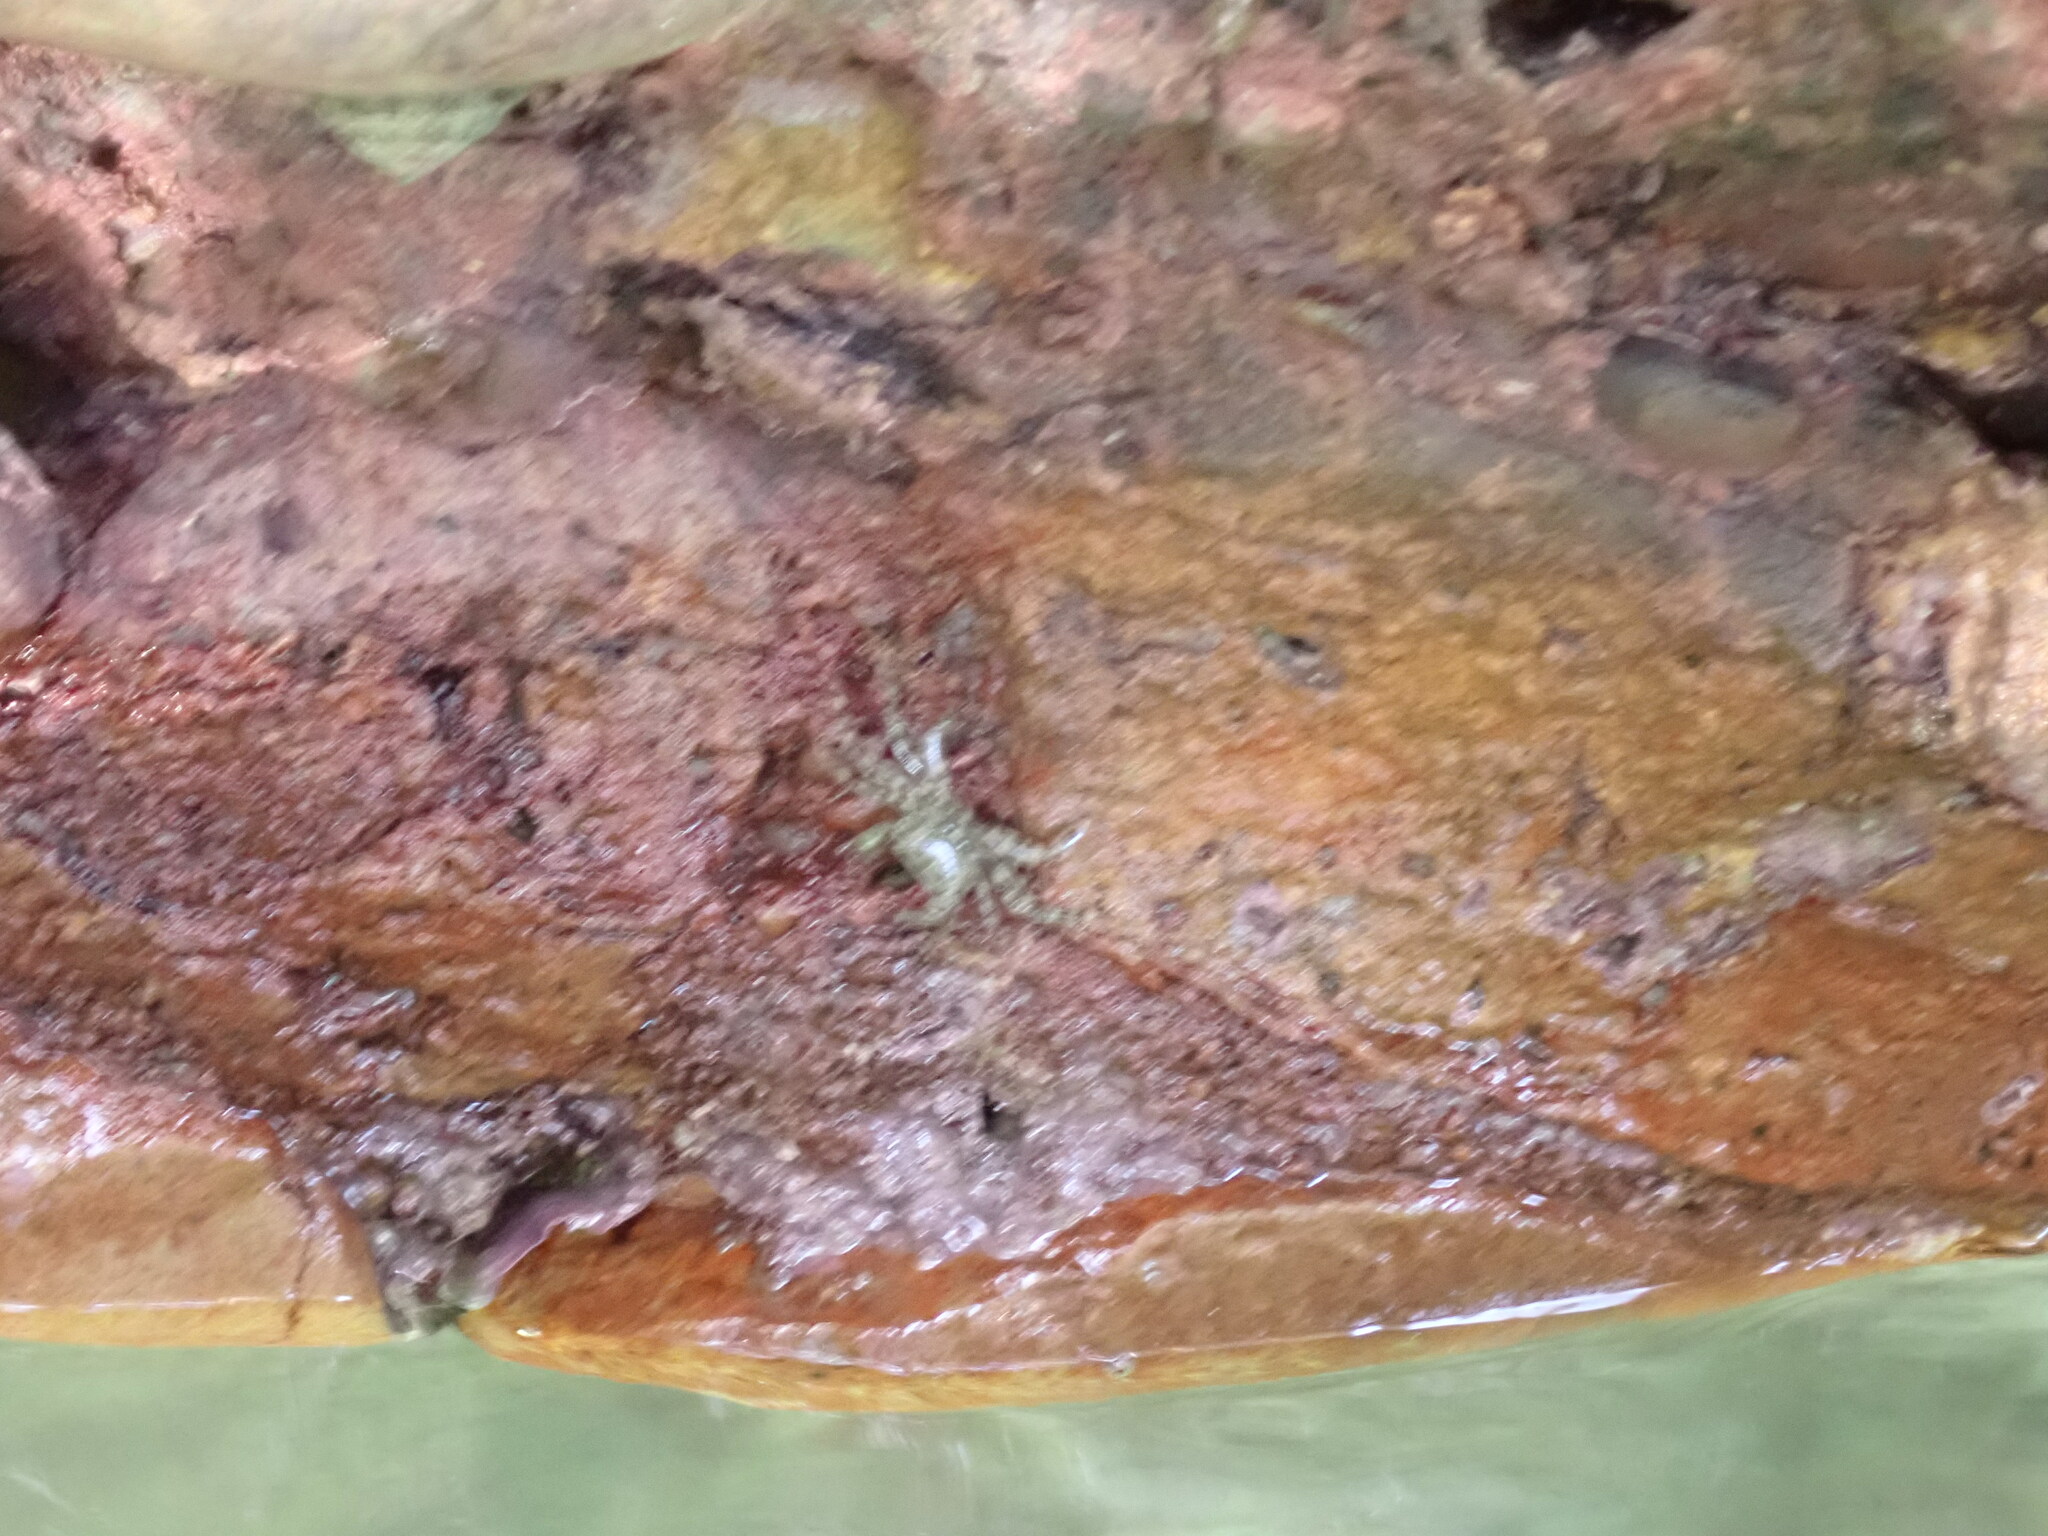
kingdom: Animalia
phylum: Arthropoda
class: Malacostraca
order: Decapoda
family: Grapsidae
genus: Pachygrapsus
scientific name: Pachygrapsus marmoratus
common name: Marbled rock crab
